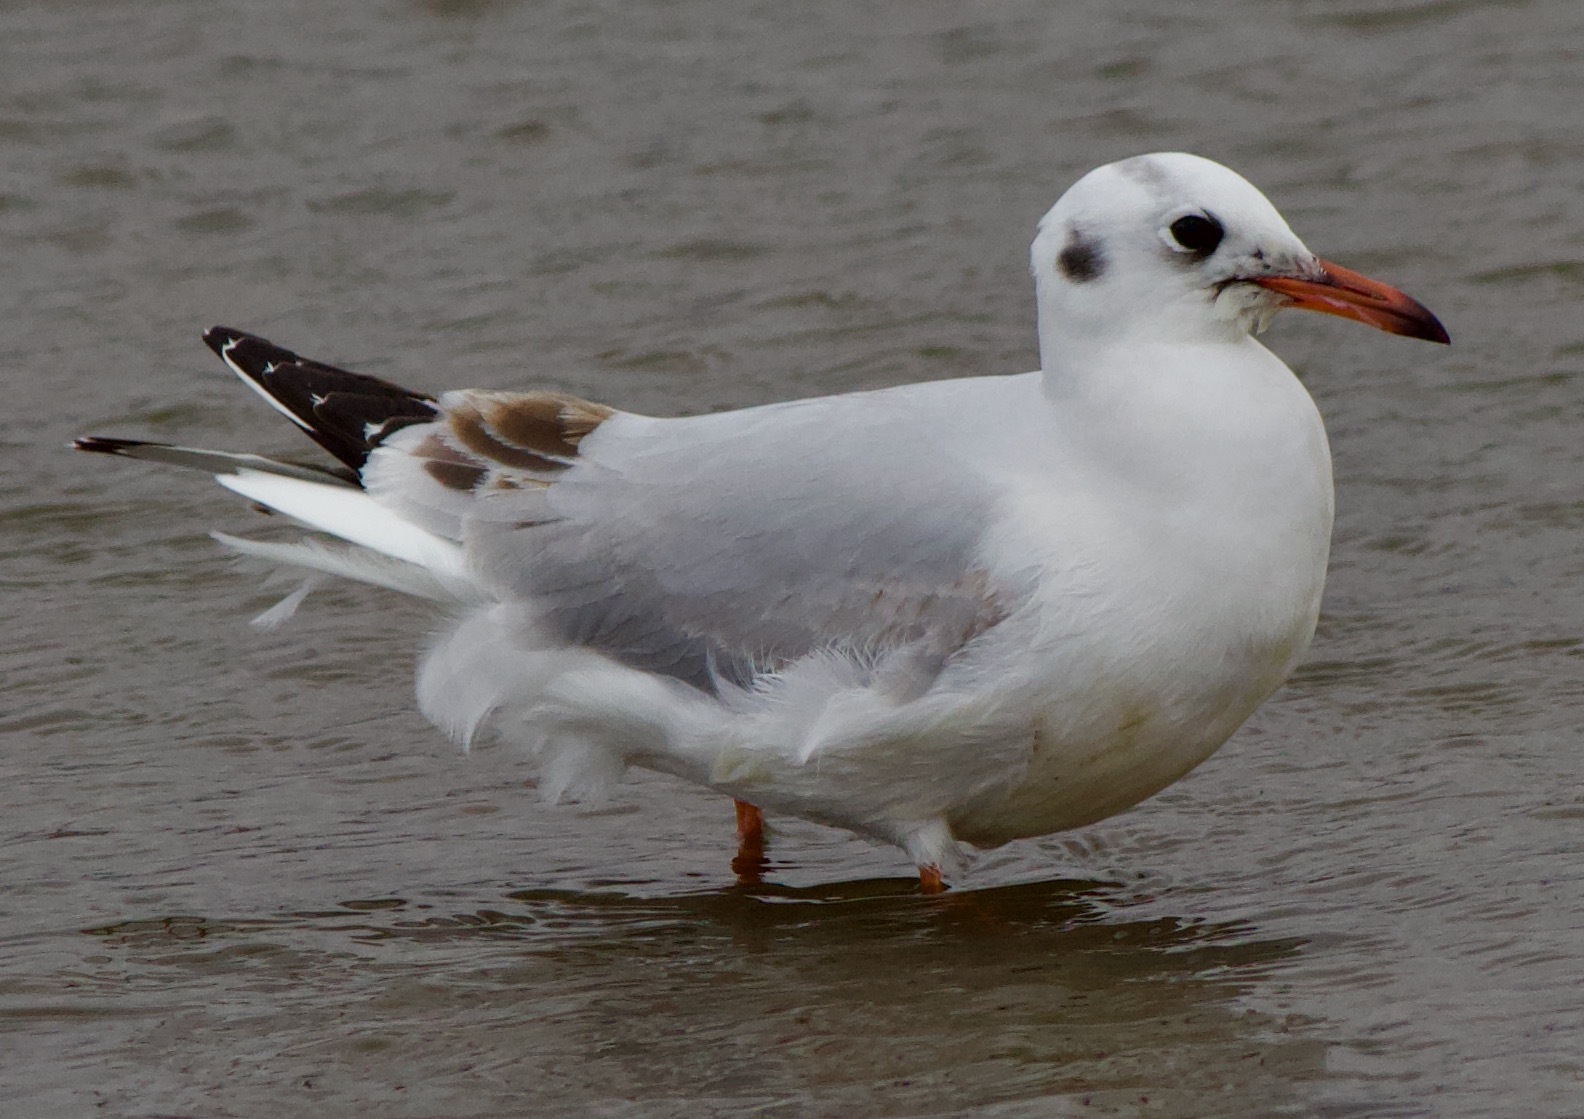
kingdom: Animalia
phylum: Chordata
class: Aves
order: Charadriiformes
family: Laridae
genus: Chroicocephalus
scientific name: Chroicocephalus maculipennis
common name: Brown-hooded gull
